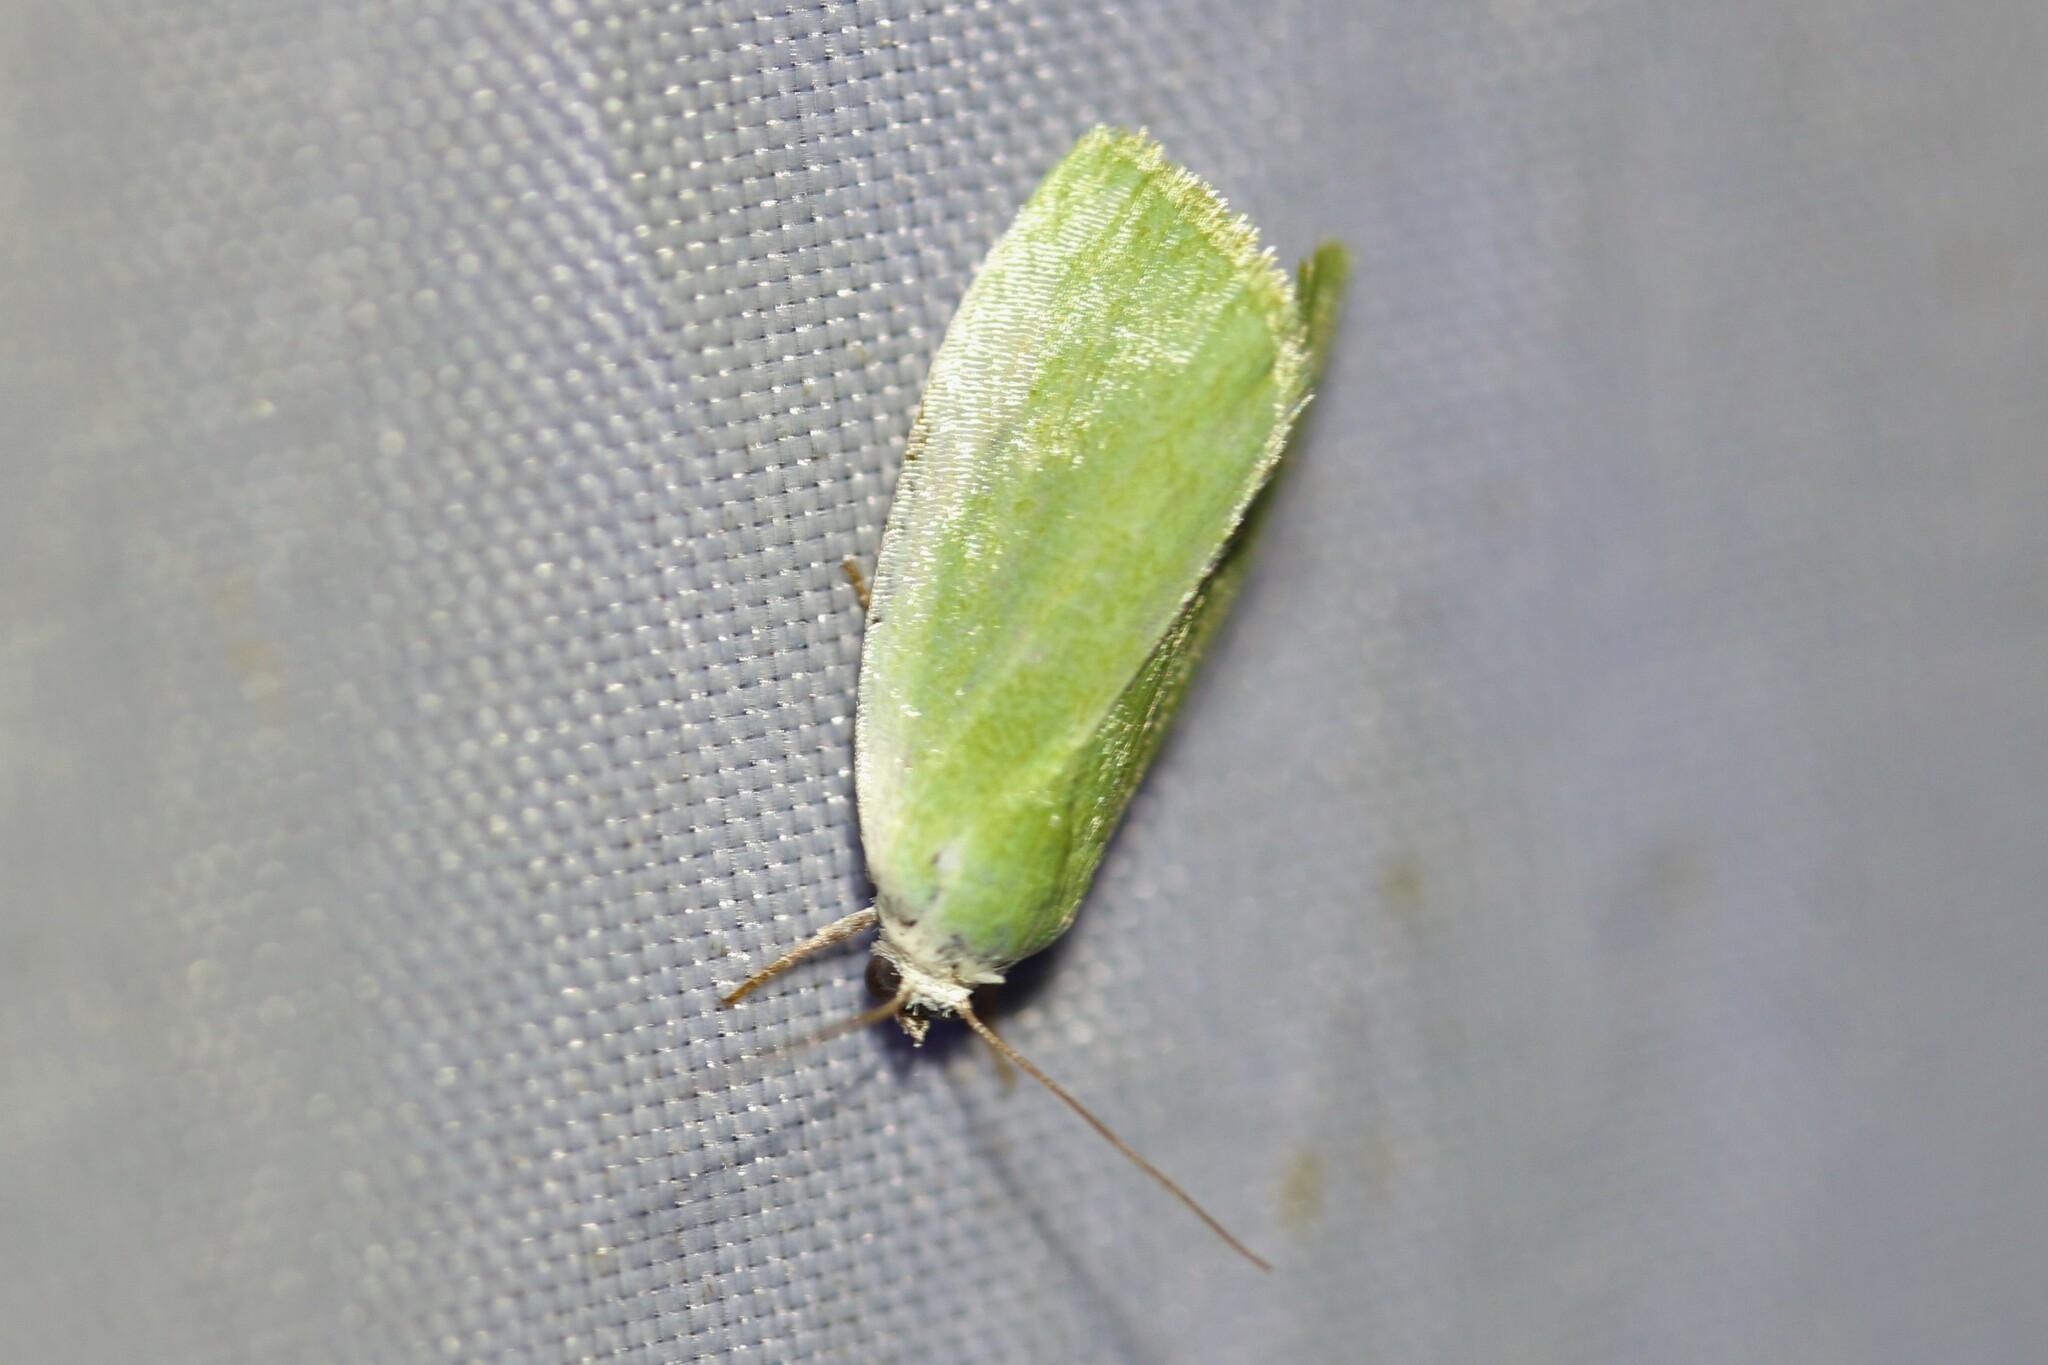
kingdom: Animalia
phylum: Arthropoda
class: Insecta
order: Lepidoptera
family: Nolidae
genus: Earias
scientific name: Earias clorana
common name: Cream-bordered green pea
